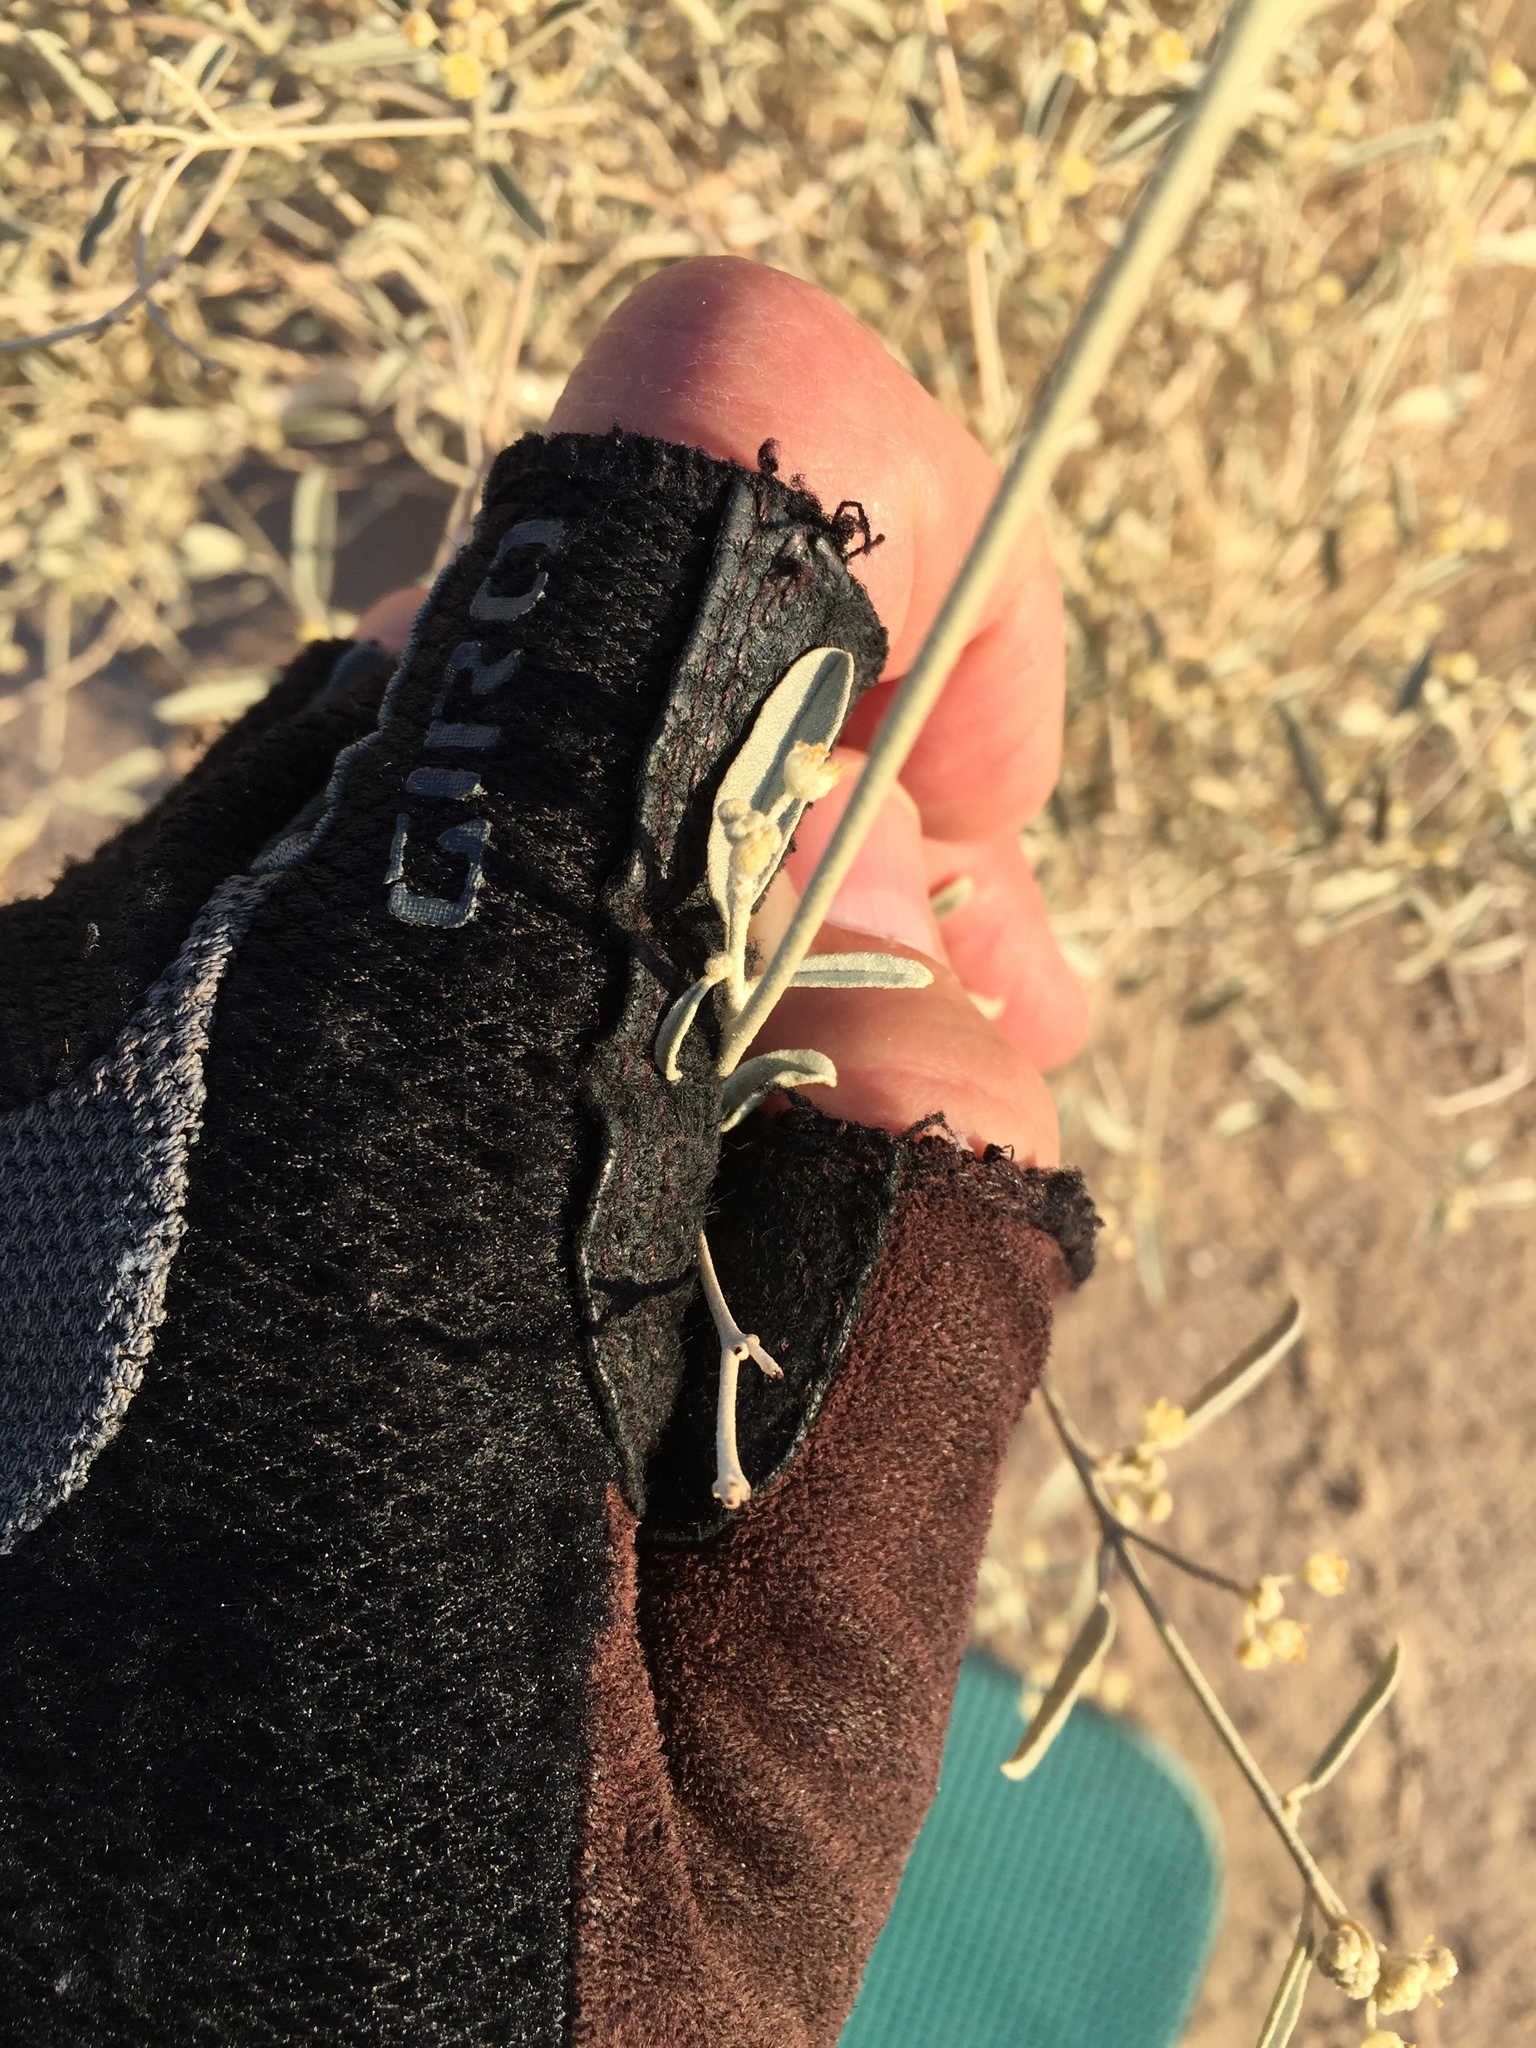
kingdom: Plantae
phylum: Tracheophyta
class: Magnoliopsida
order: Malpighiales
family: Euphorbiaceae
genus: Croton
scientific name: Croton californicus
